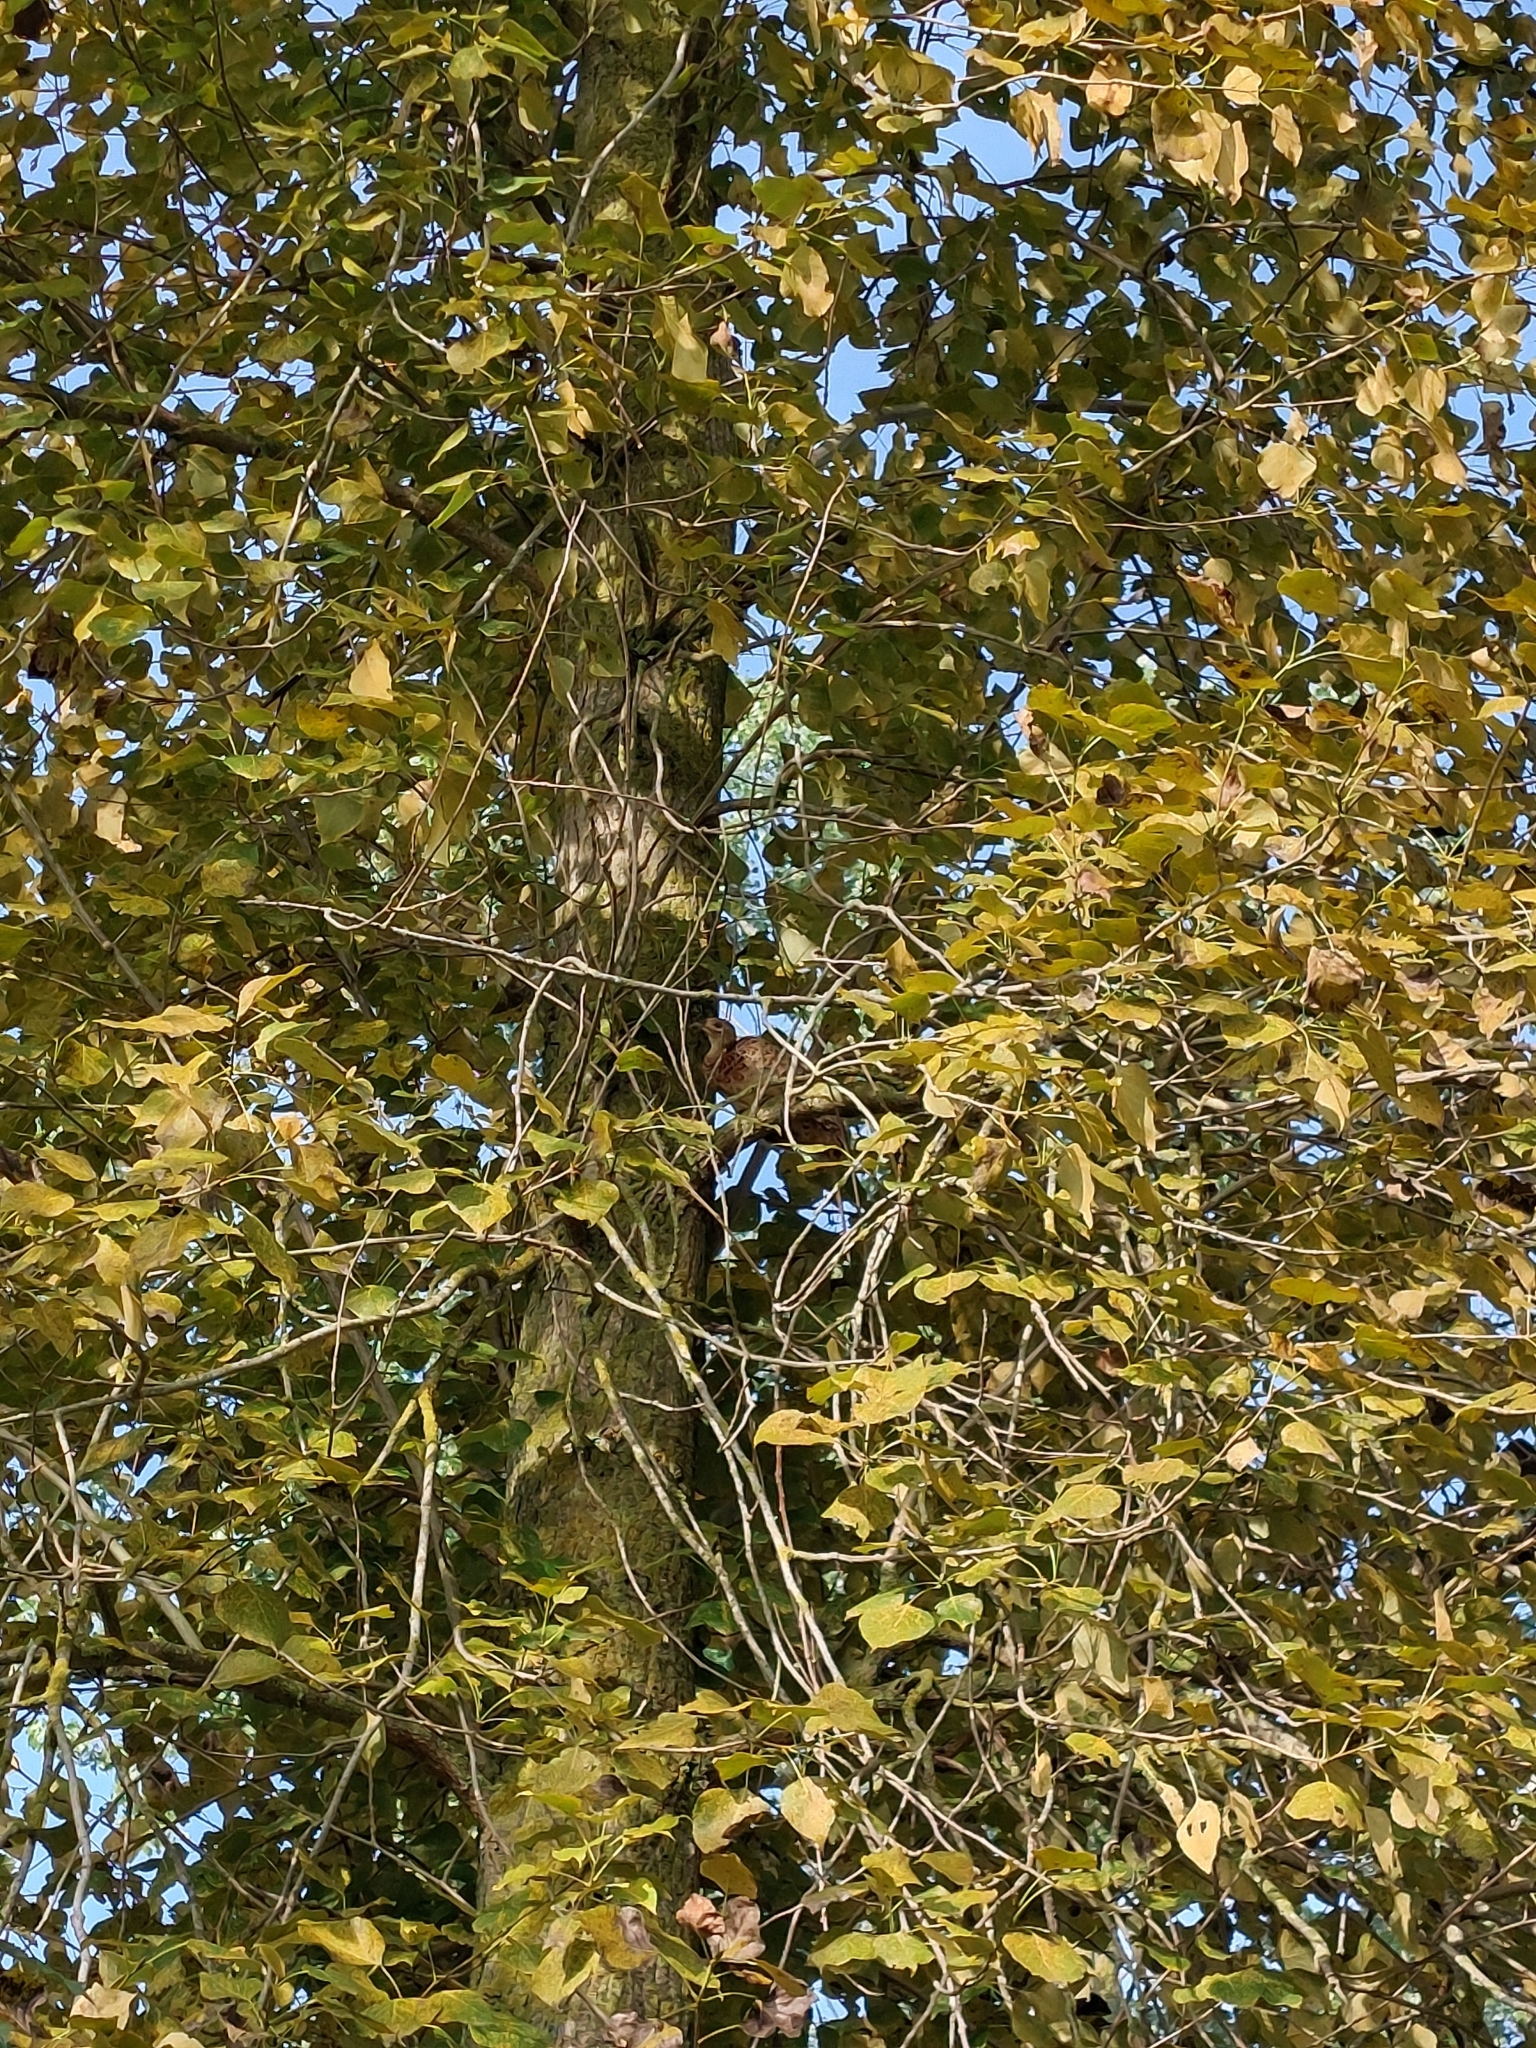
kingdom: Animalia
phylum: Chordata
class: Aves
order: Galliformes
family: Phasianidae
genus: Phasianus
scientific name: Phasianus colchicus
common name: Common pheasant
